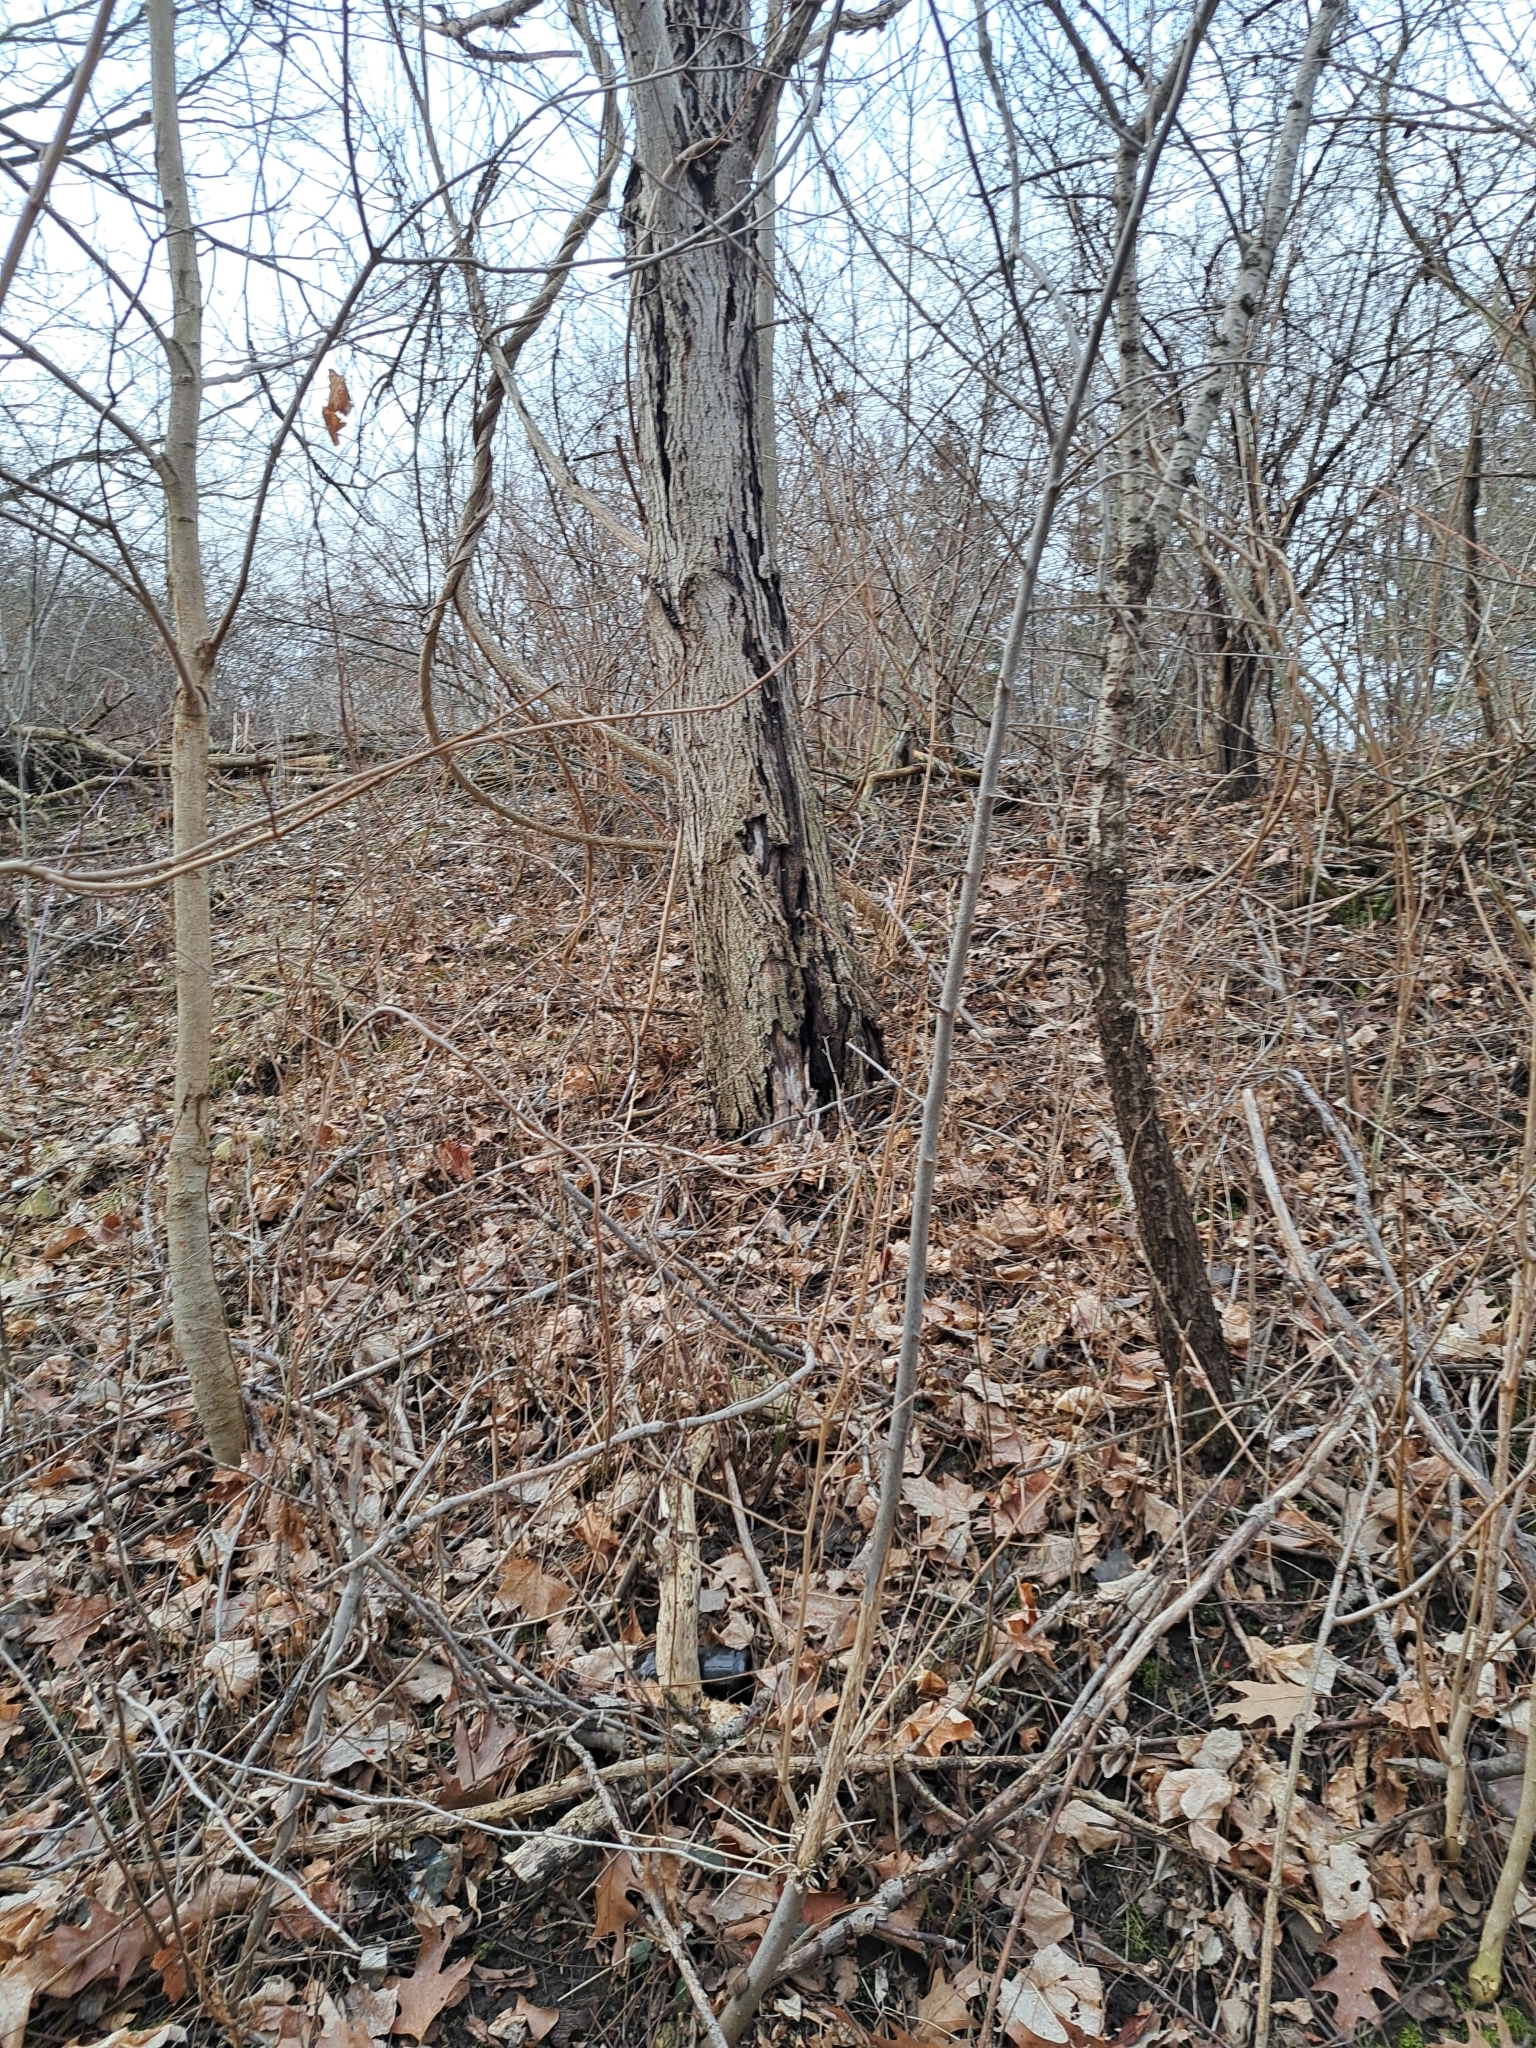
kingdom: Plantae
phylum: Tracheophyta
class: Magnoliopsida
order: Fagales
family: Juglandaceae
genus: Juglans
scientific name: Juglans cinerea
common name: Butternut
